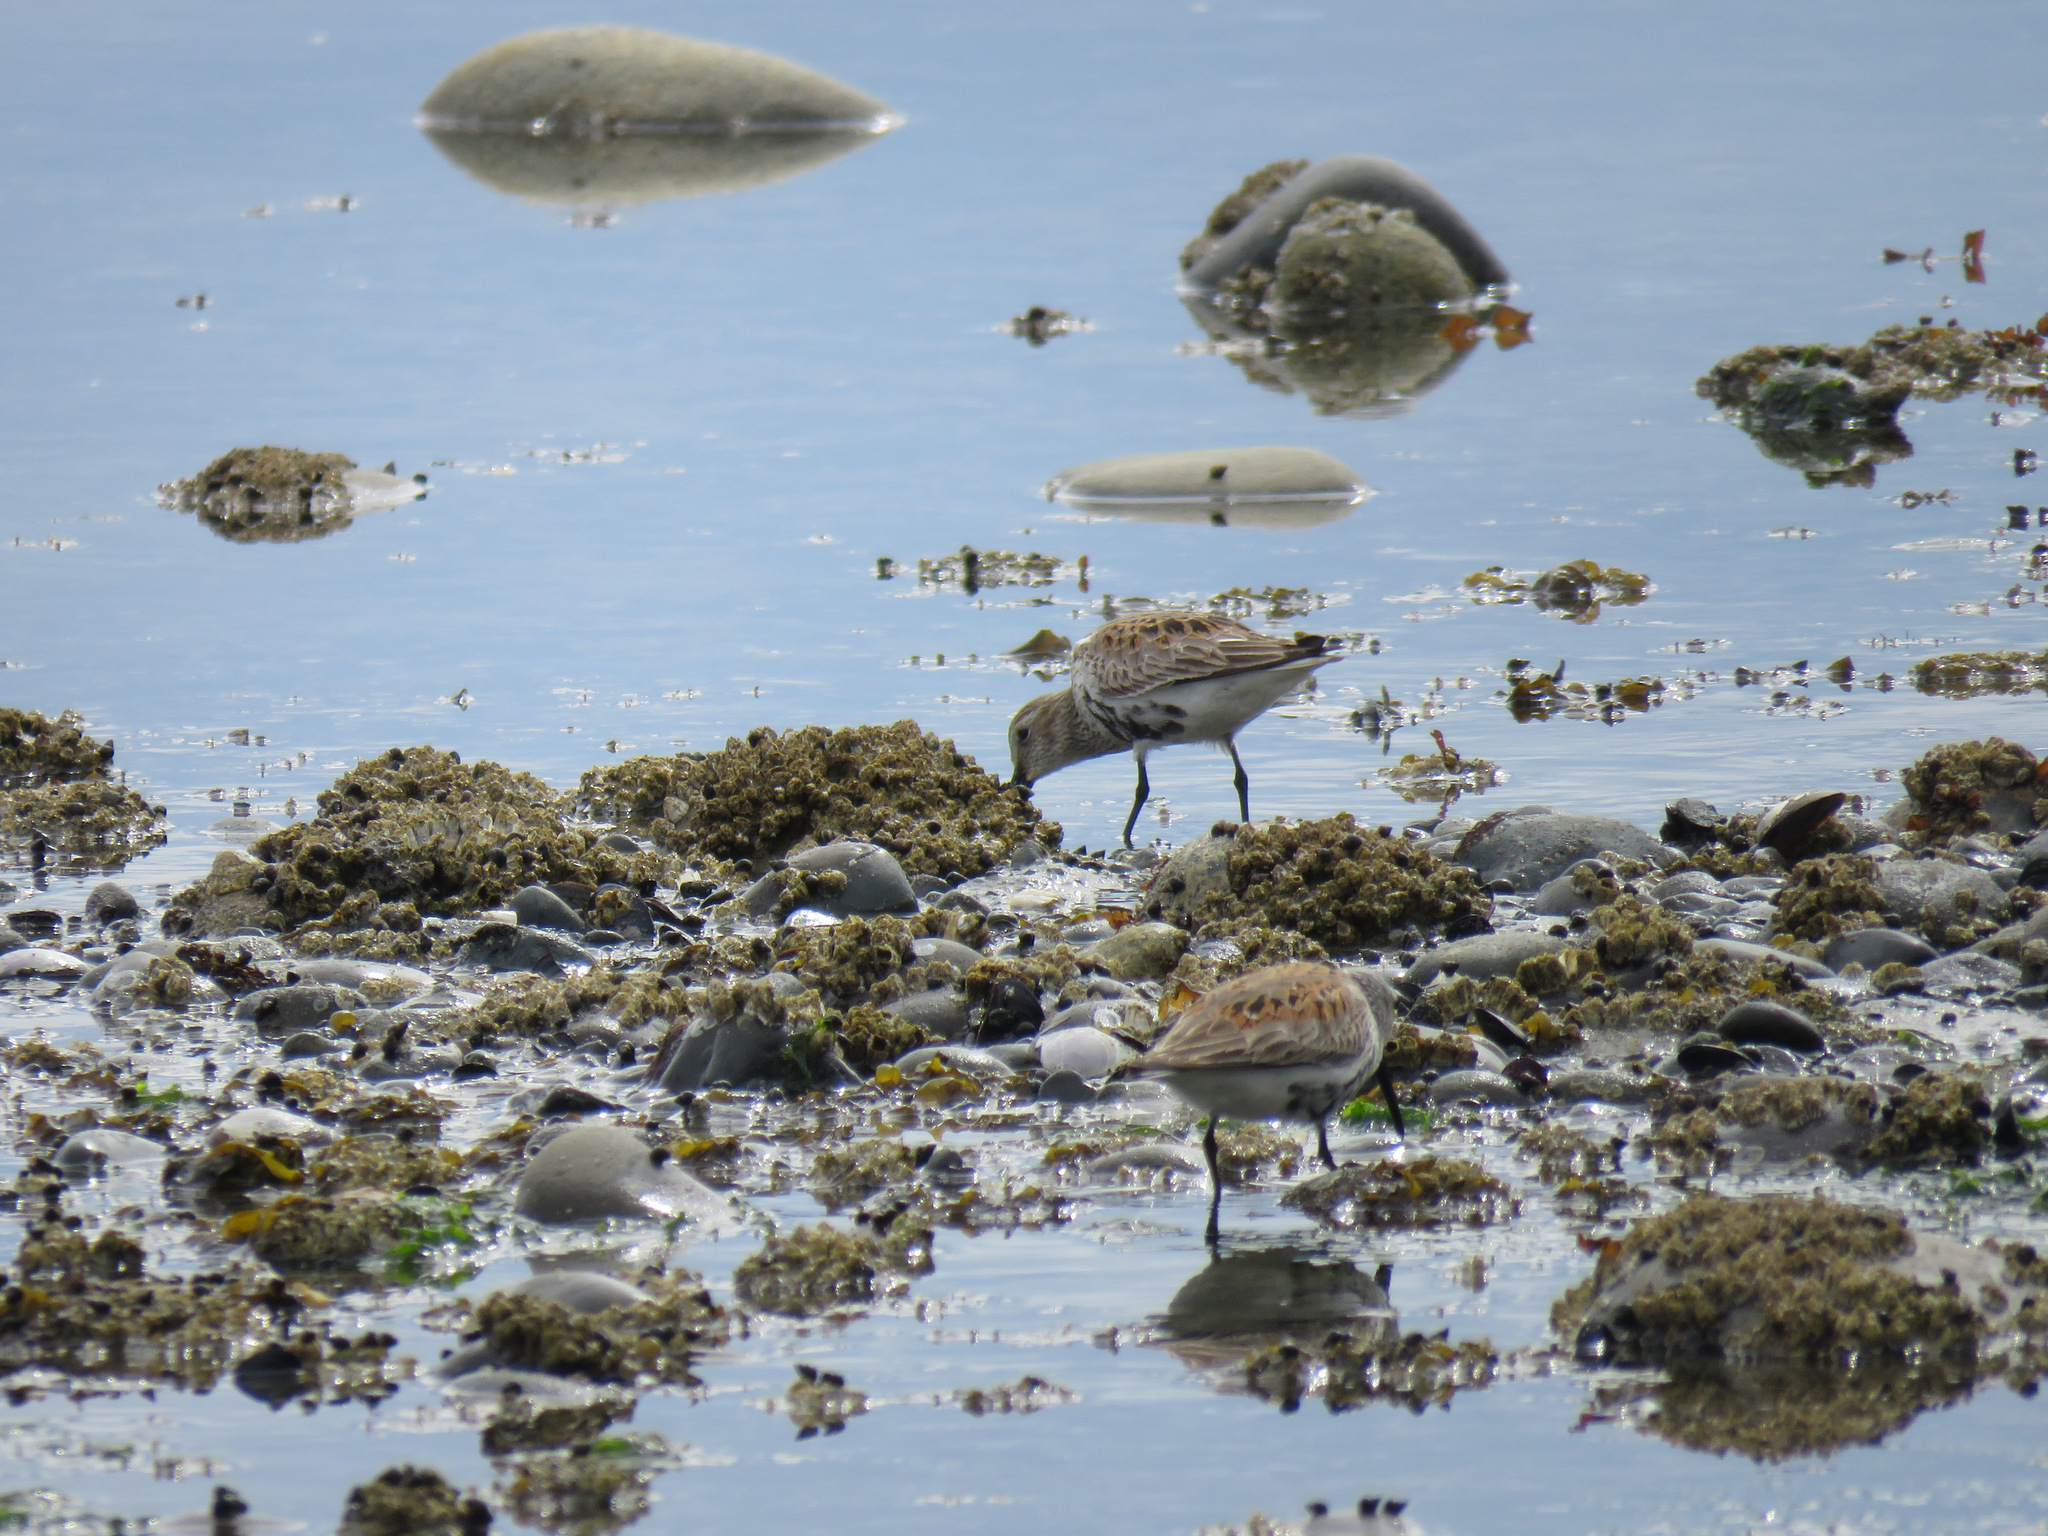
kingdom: Animalia
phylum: Chordata
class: Aves
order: Charadriiformes
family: Scolopacidae
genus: Calidris
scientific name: Calidris alpina
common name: Dunlin
